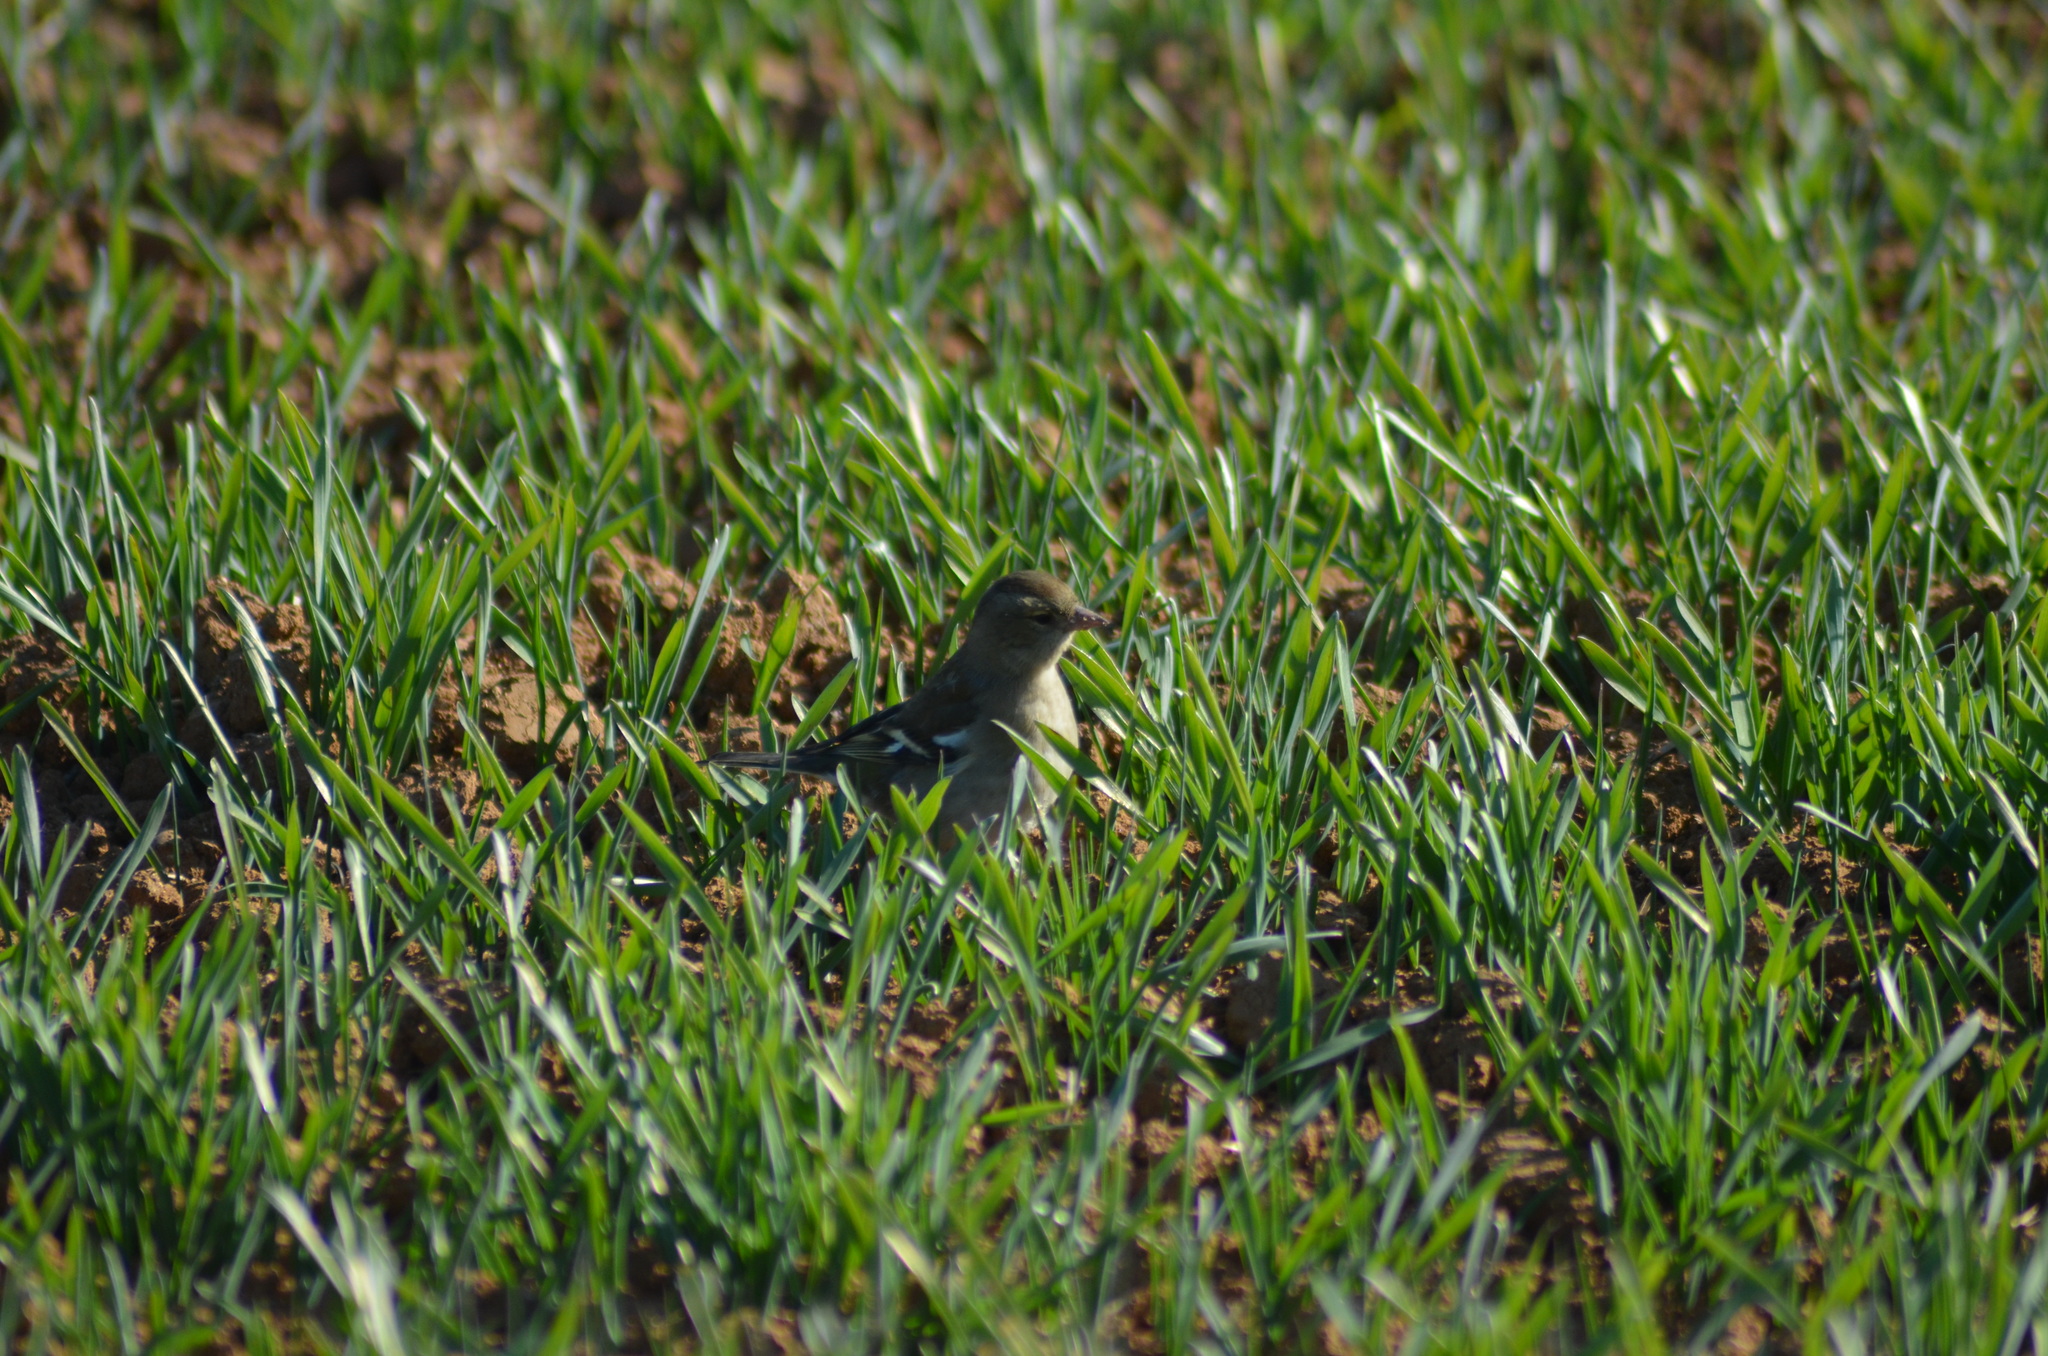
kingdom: Animalia
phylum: Chordata
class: Aves
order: Passeriformes
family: Fringillidae
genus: Fringilla
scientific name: Fringilla coelebs
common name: Common chaffinch
